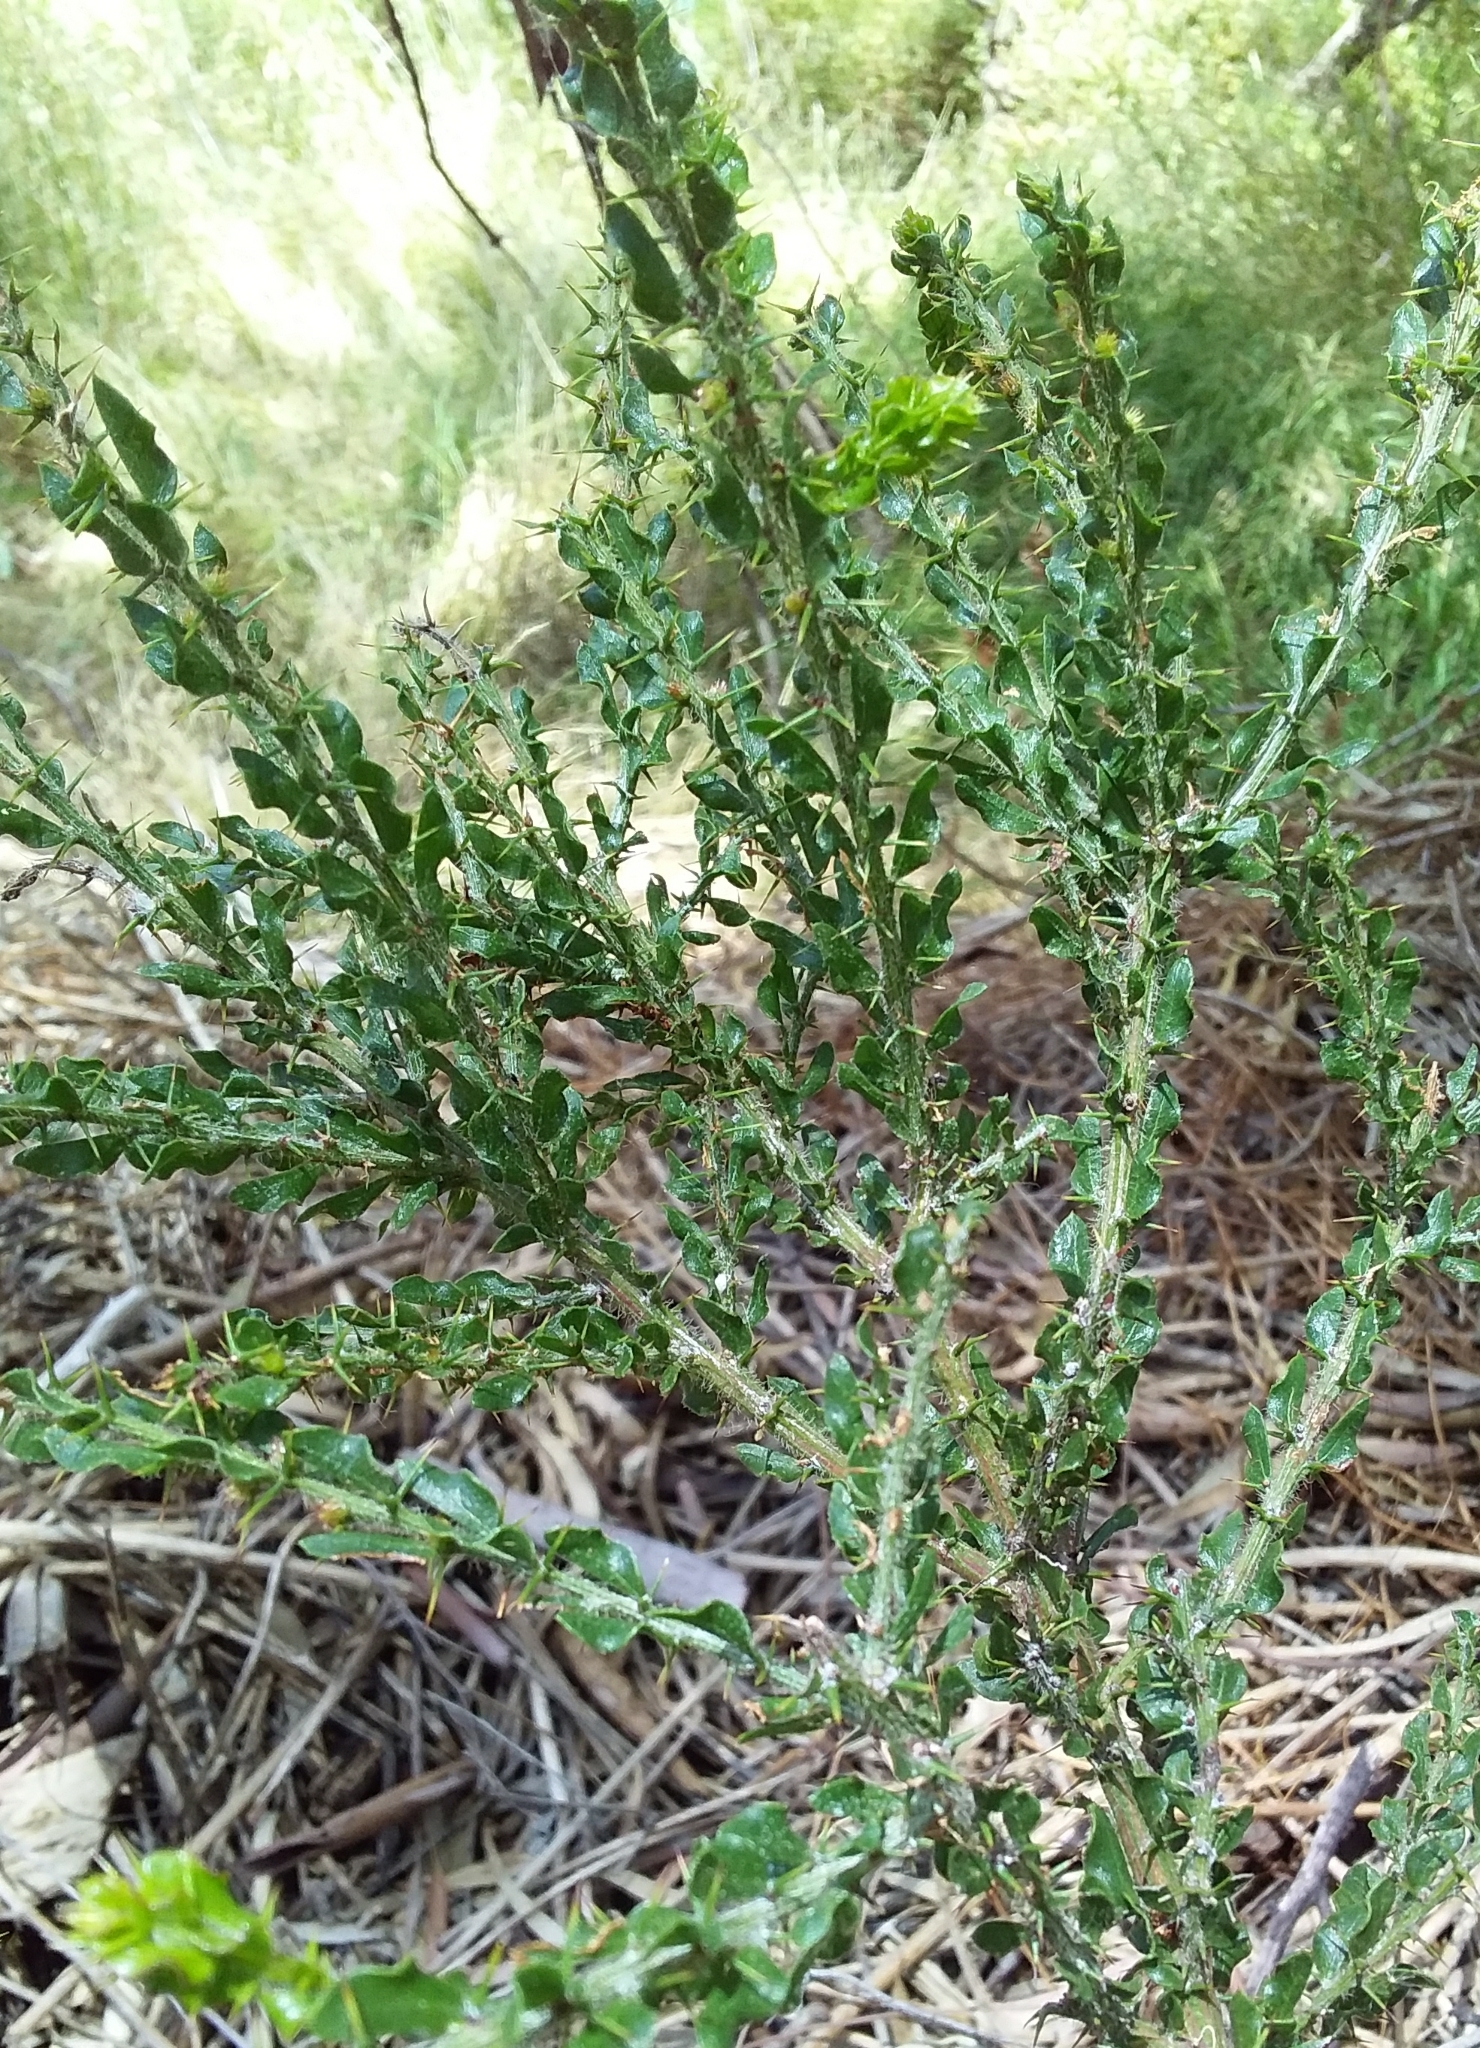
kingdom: Plantae
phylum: Tracheophyta
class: Magnoliopsida
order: Fabales
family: Fabaceae
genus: Acacia
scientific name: Acacia paradoxa
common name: Paradox acacia
